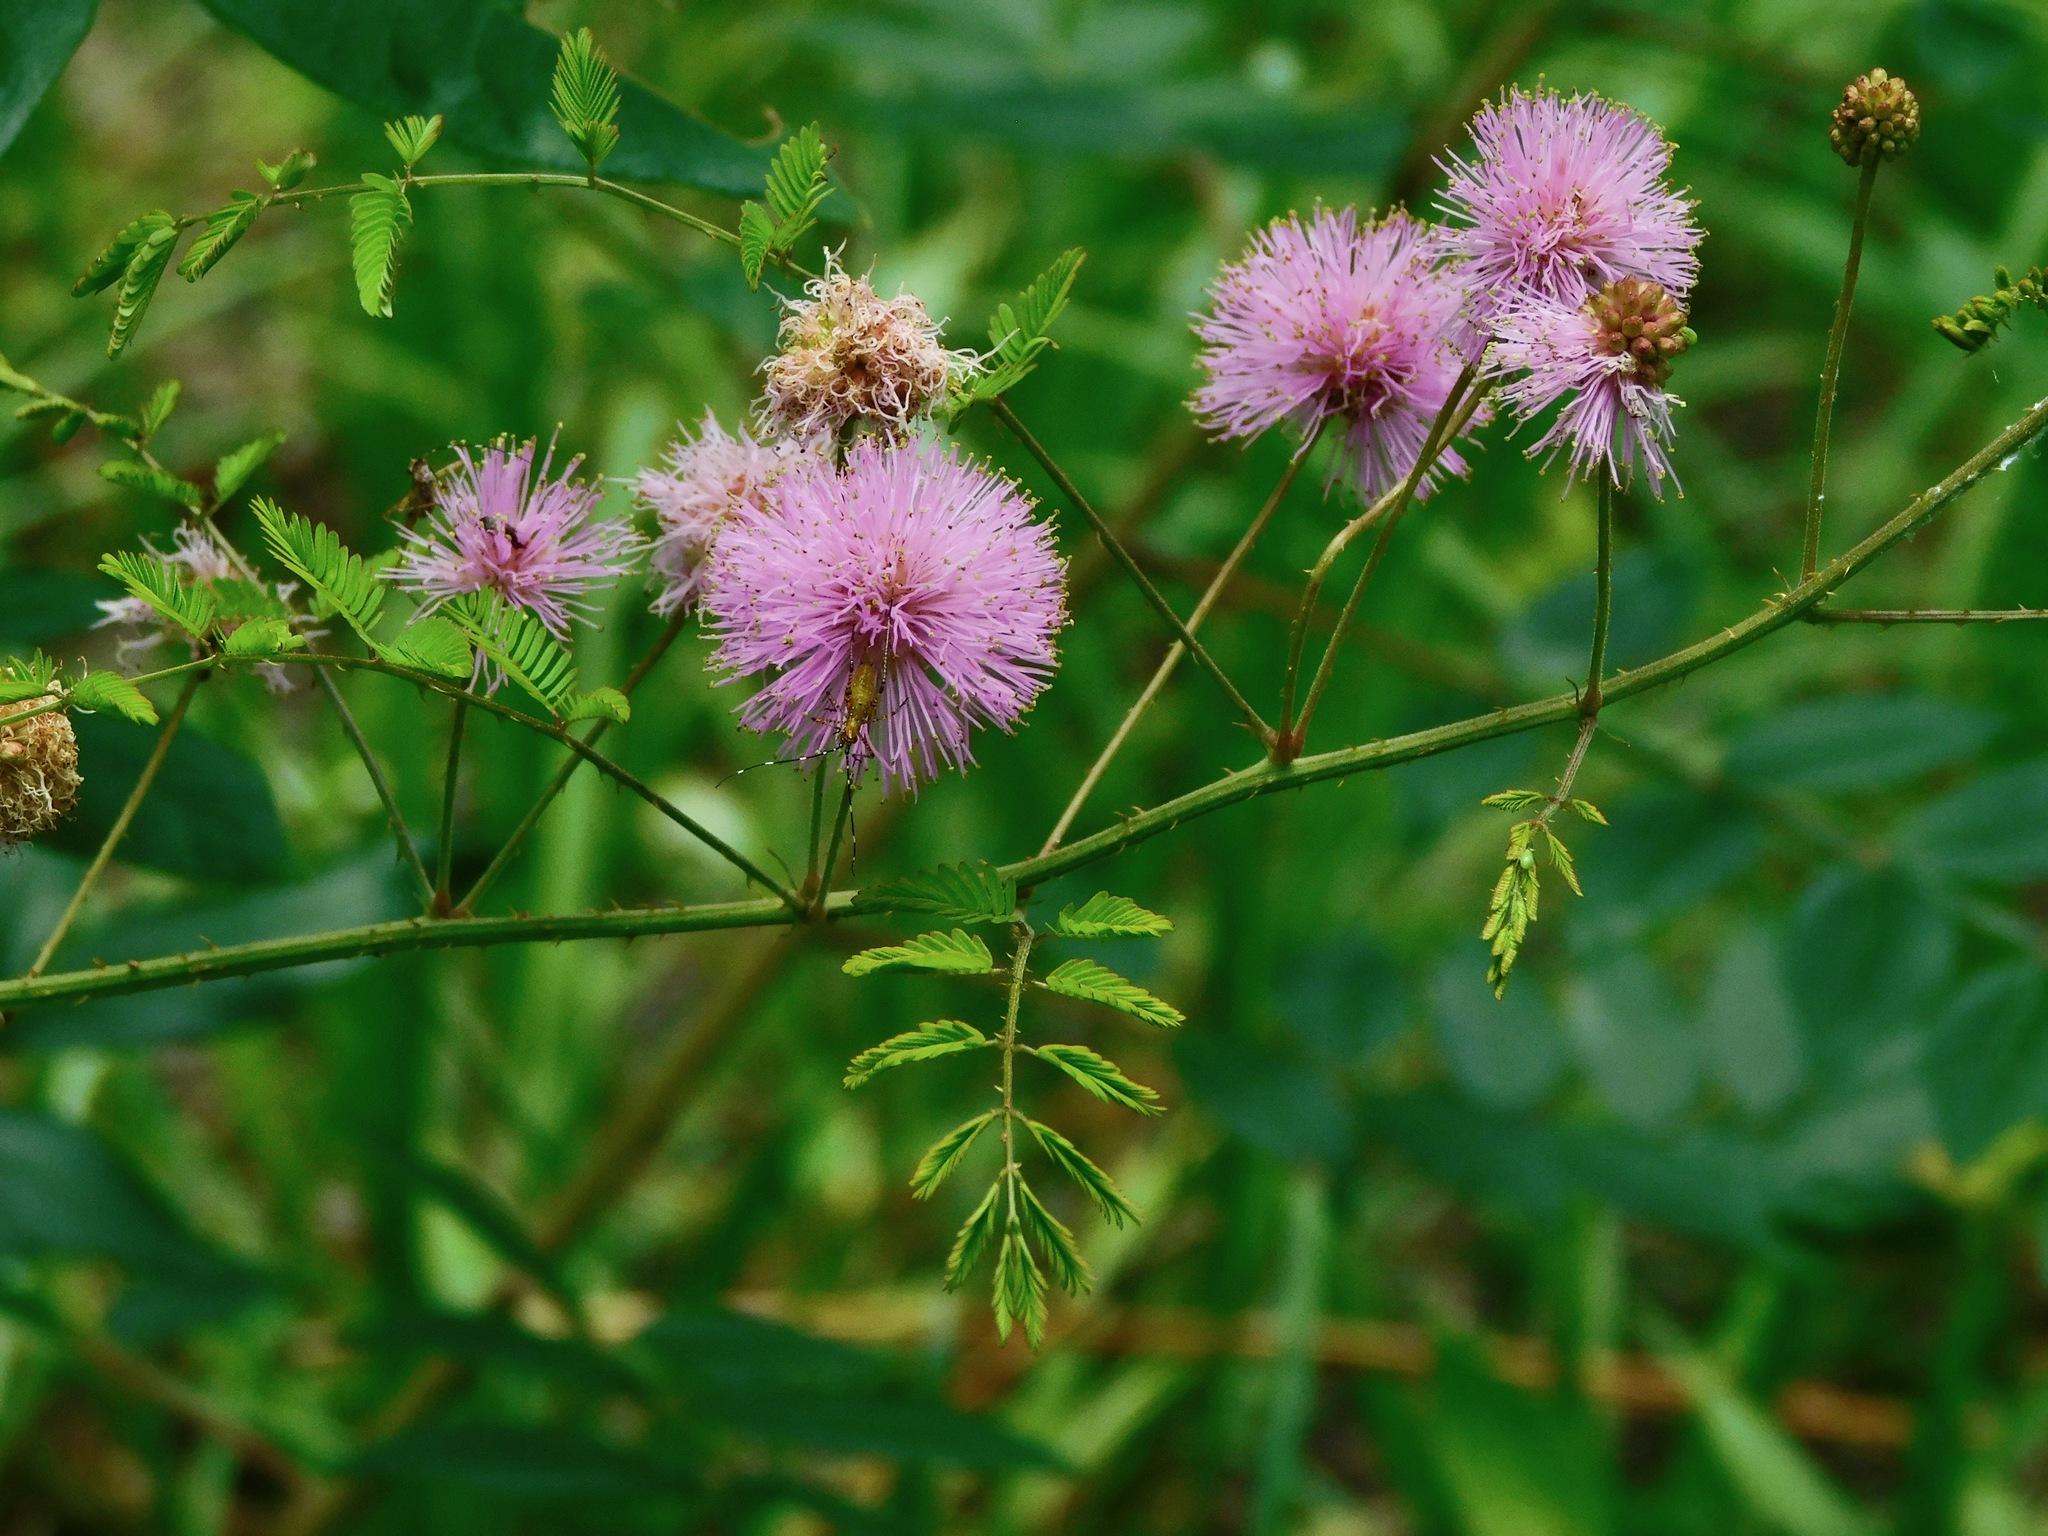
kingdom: Plantae
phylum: Tracheophyta
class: Magnoliopsida
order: Fabales
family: Fabaceae
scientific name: Fabaceae
